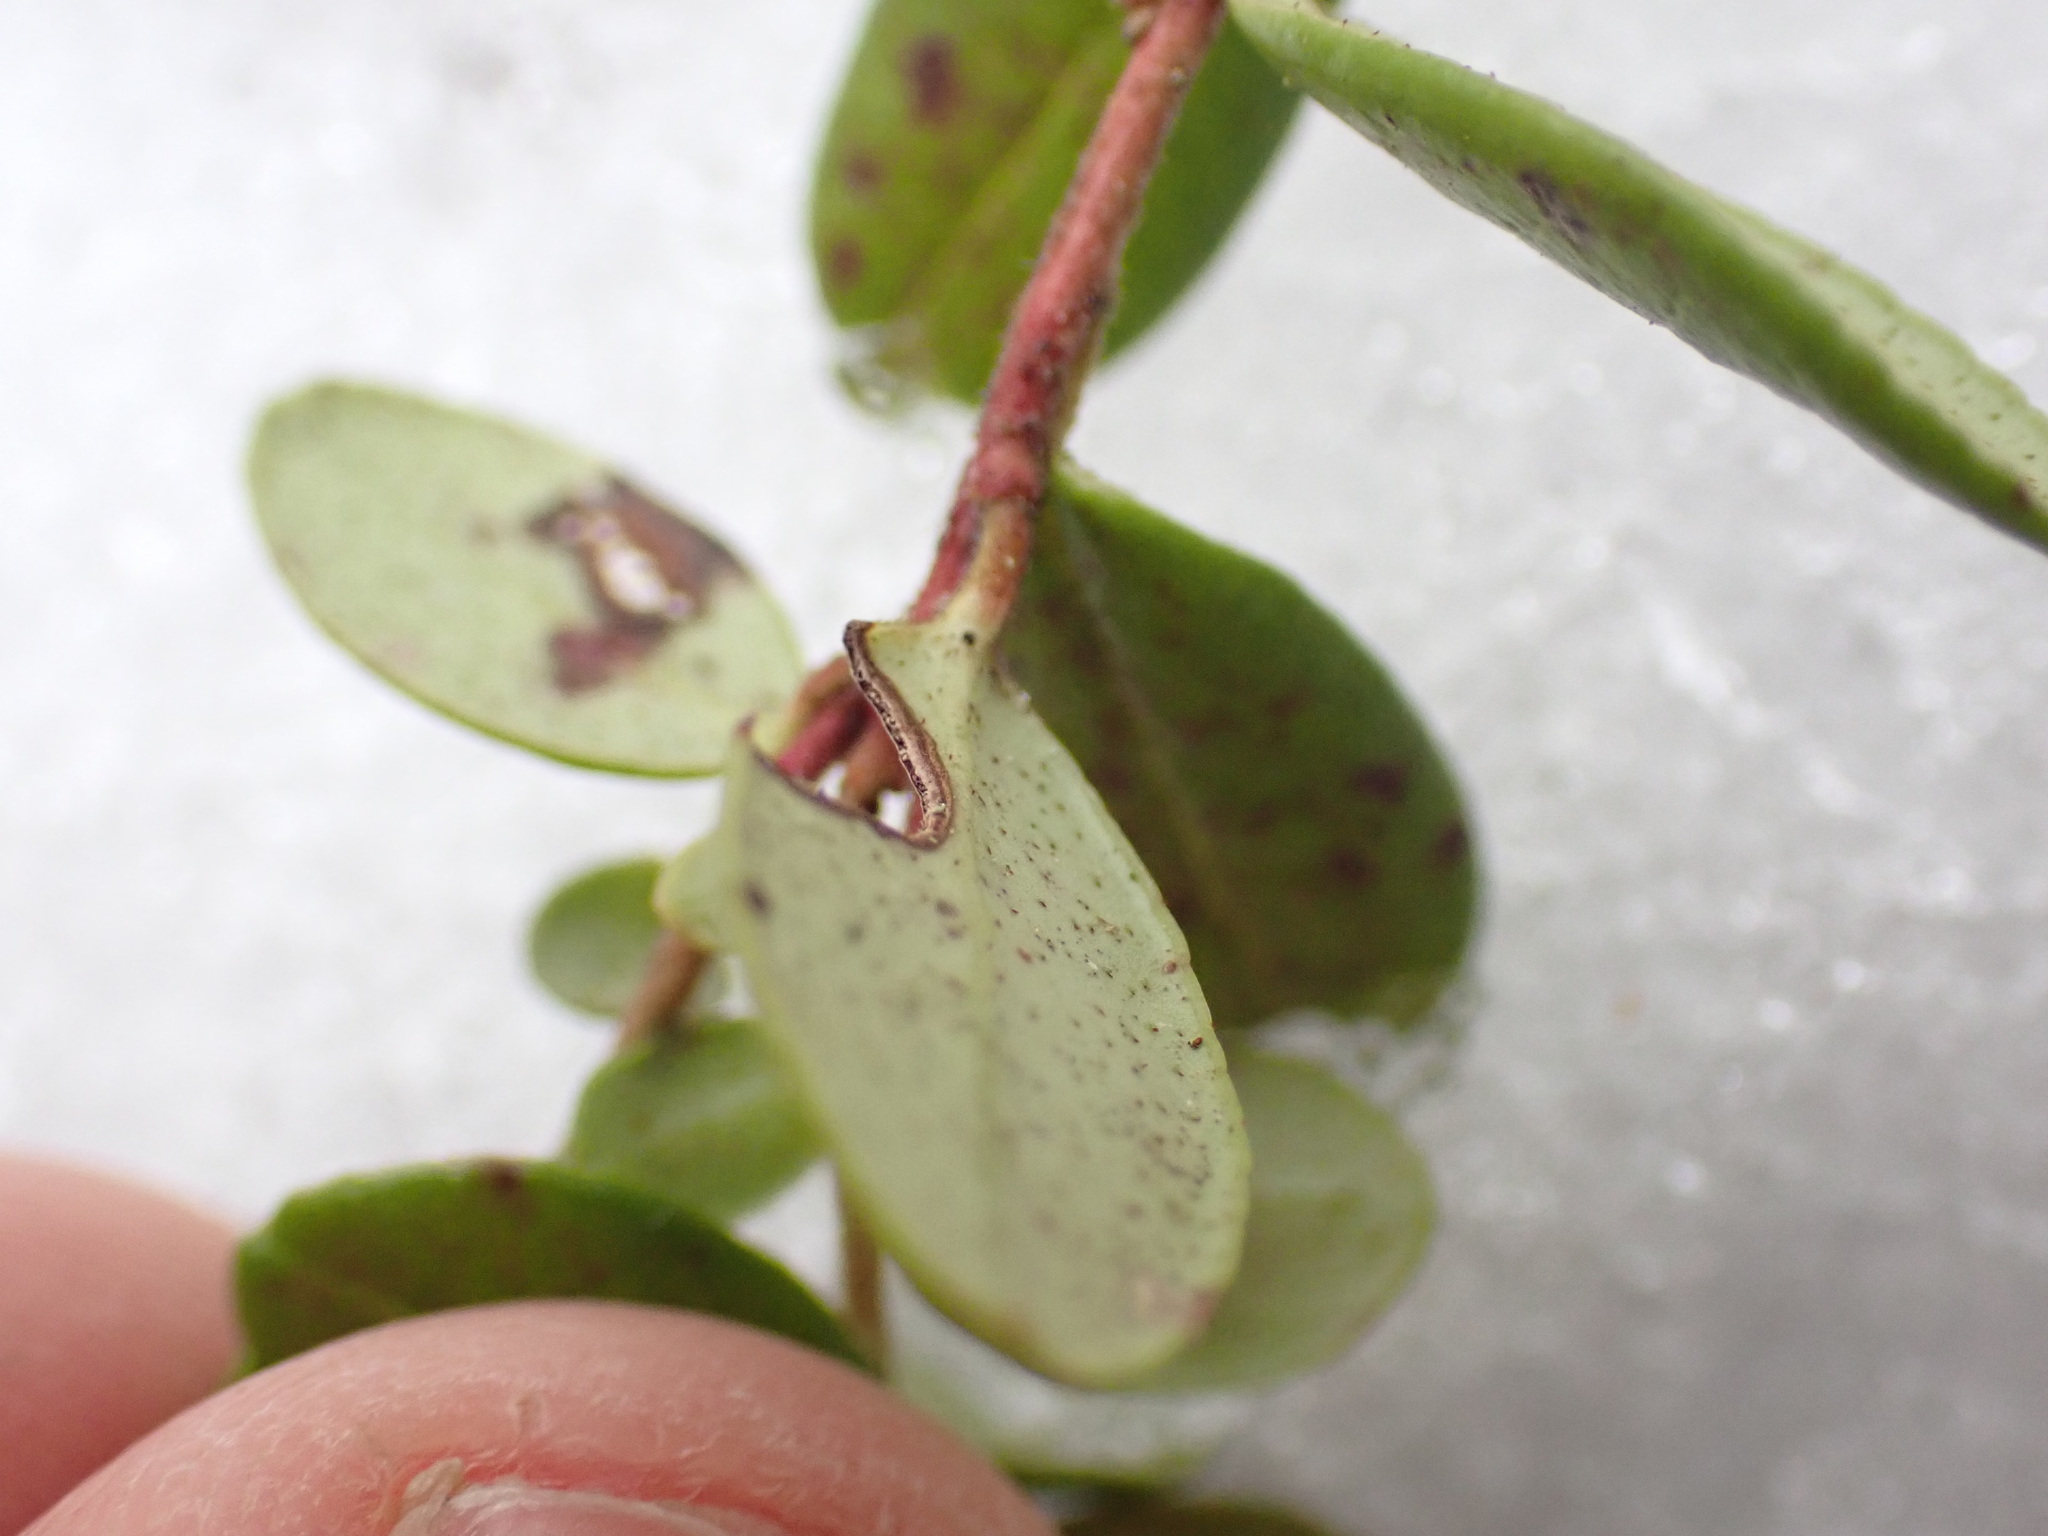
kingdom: Plantae
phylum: Tracheophyta
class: Magnoliopsida
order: Ericales
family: Ericaceae
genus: Vaccinium
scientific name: Vaccinium vitis-idaea
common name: Cowberry
